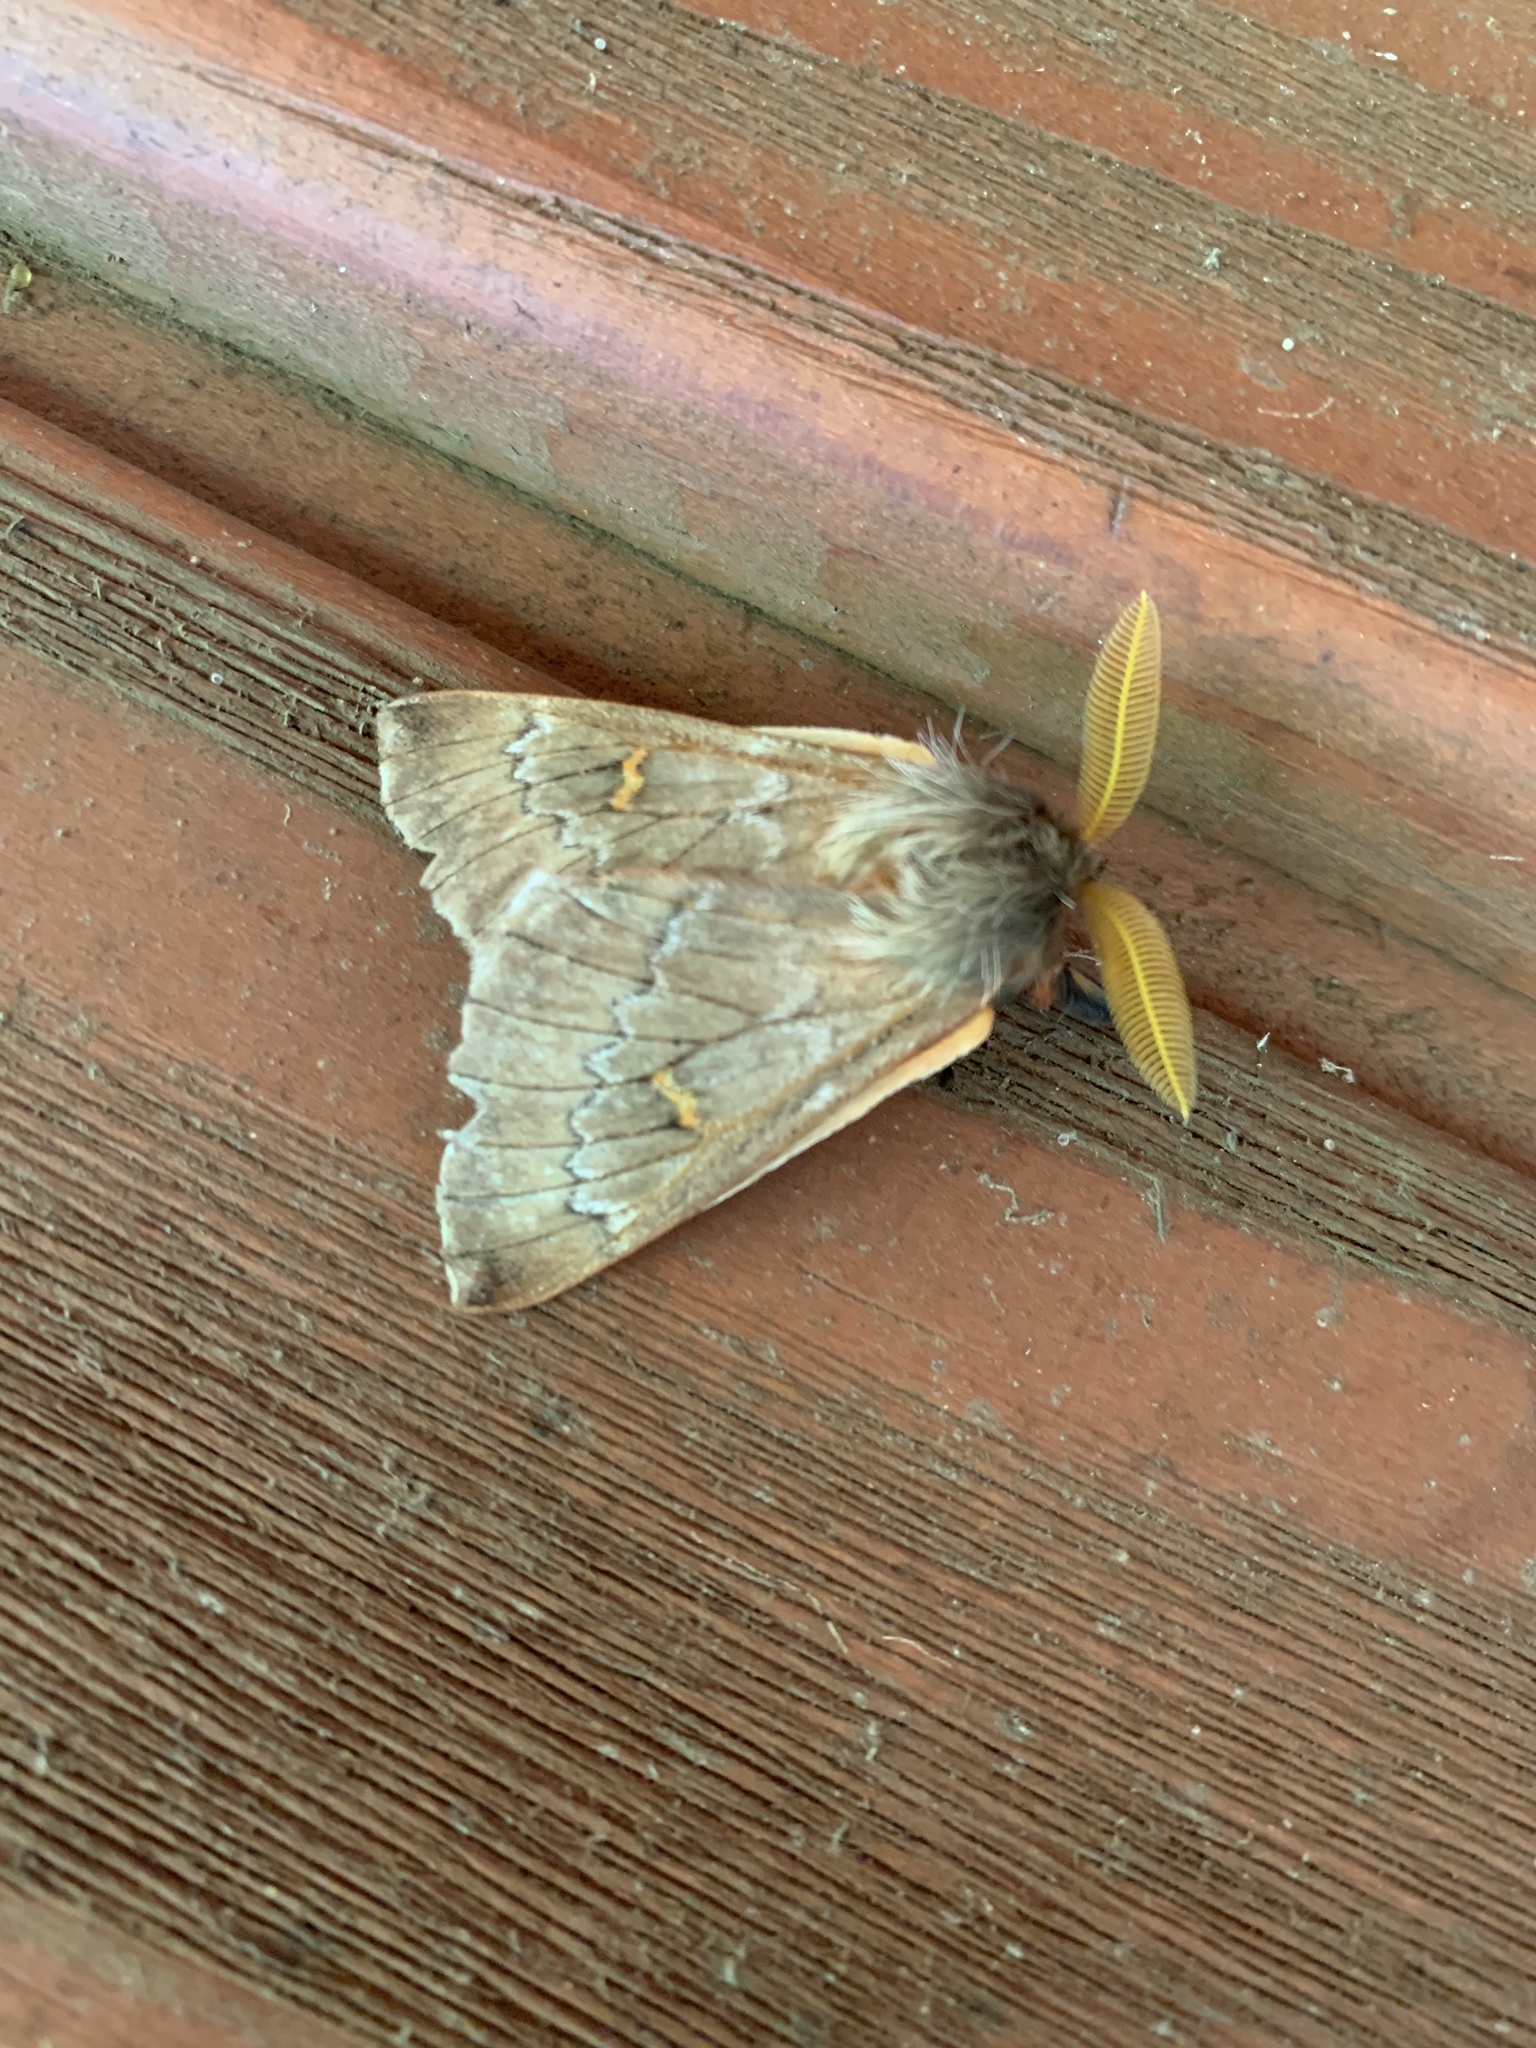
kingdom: Animalia
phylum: Arthropoda
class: Insecta
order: Lepidoptera
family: Saturniidae
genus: Ormiscodes
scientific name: Ormiscodes joiceyi
